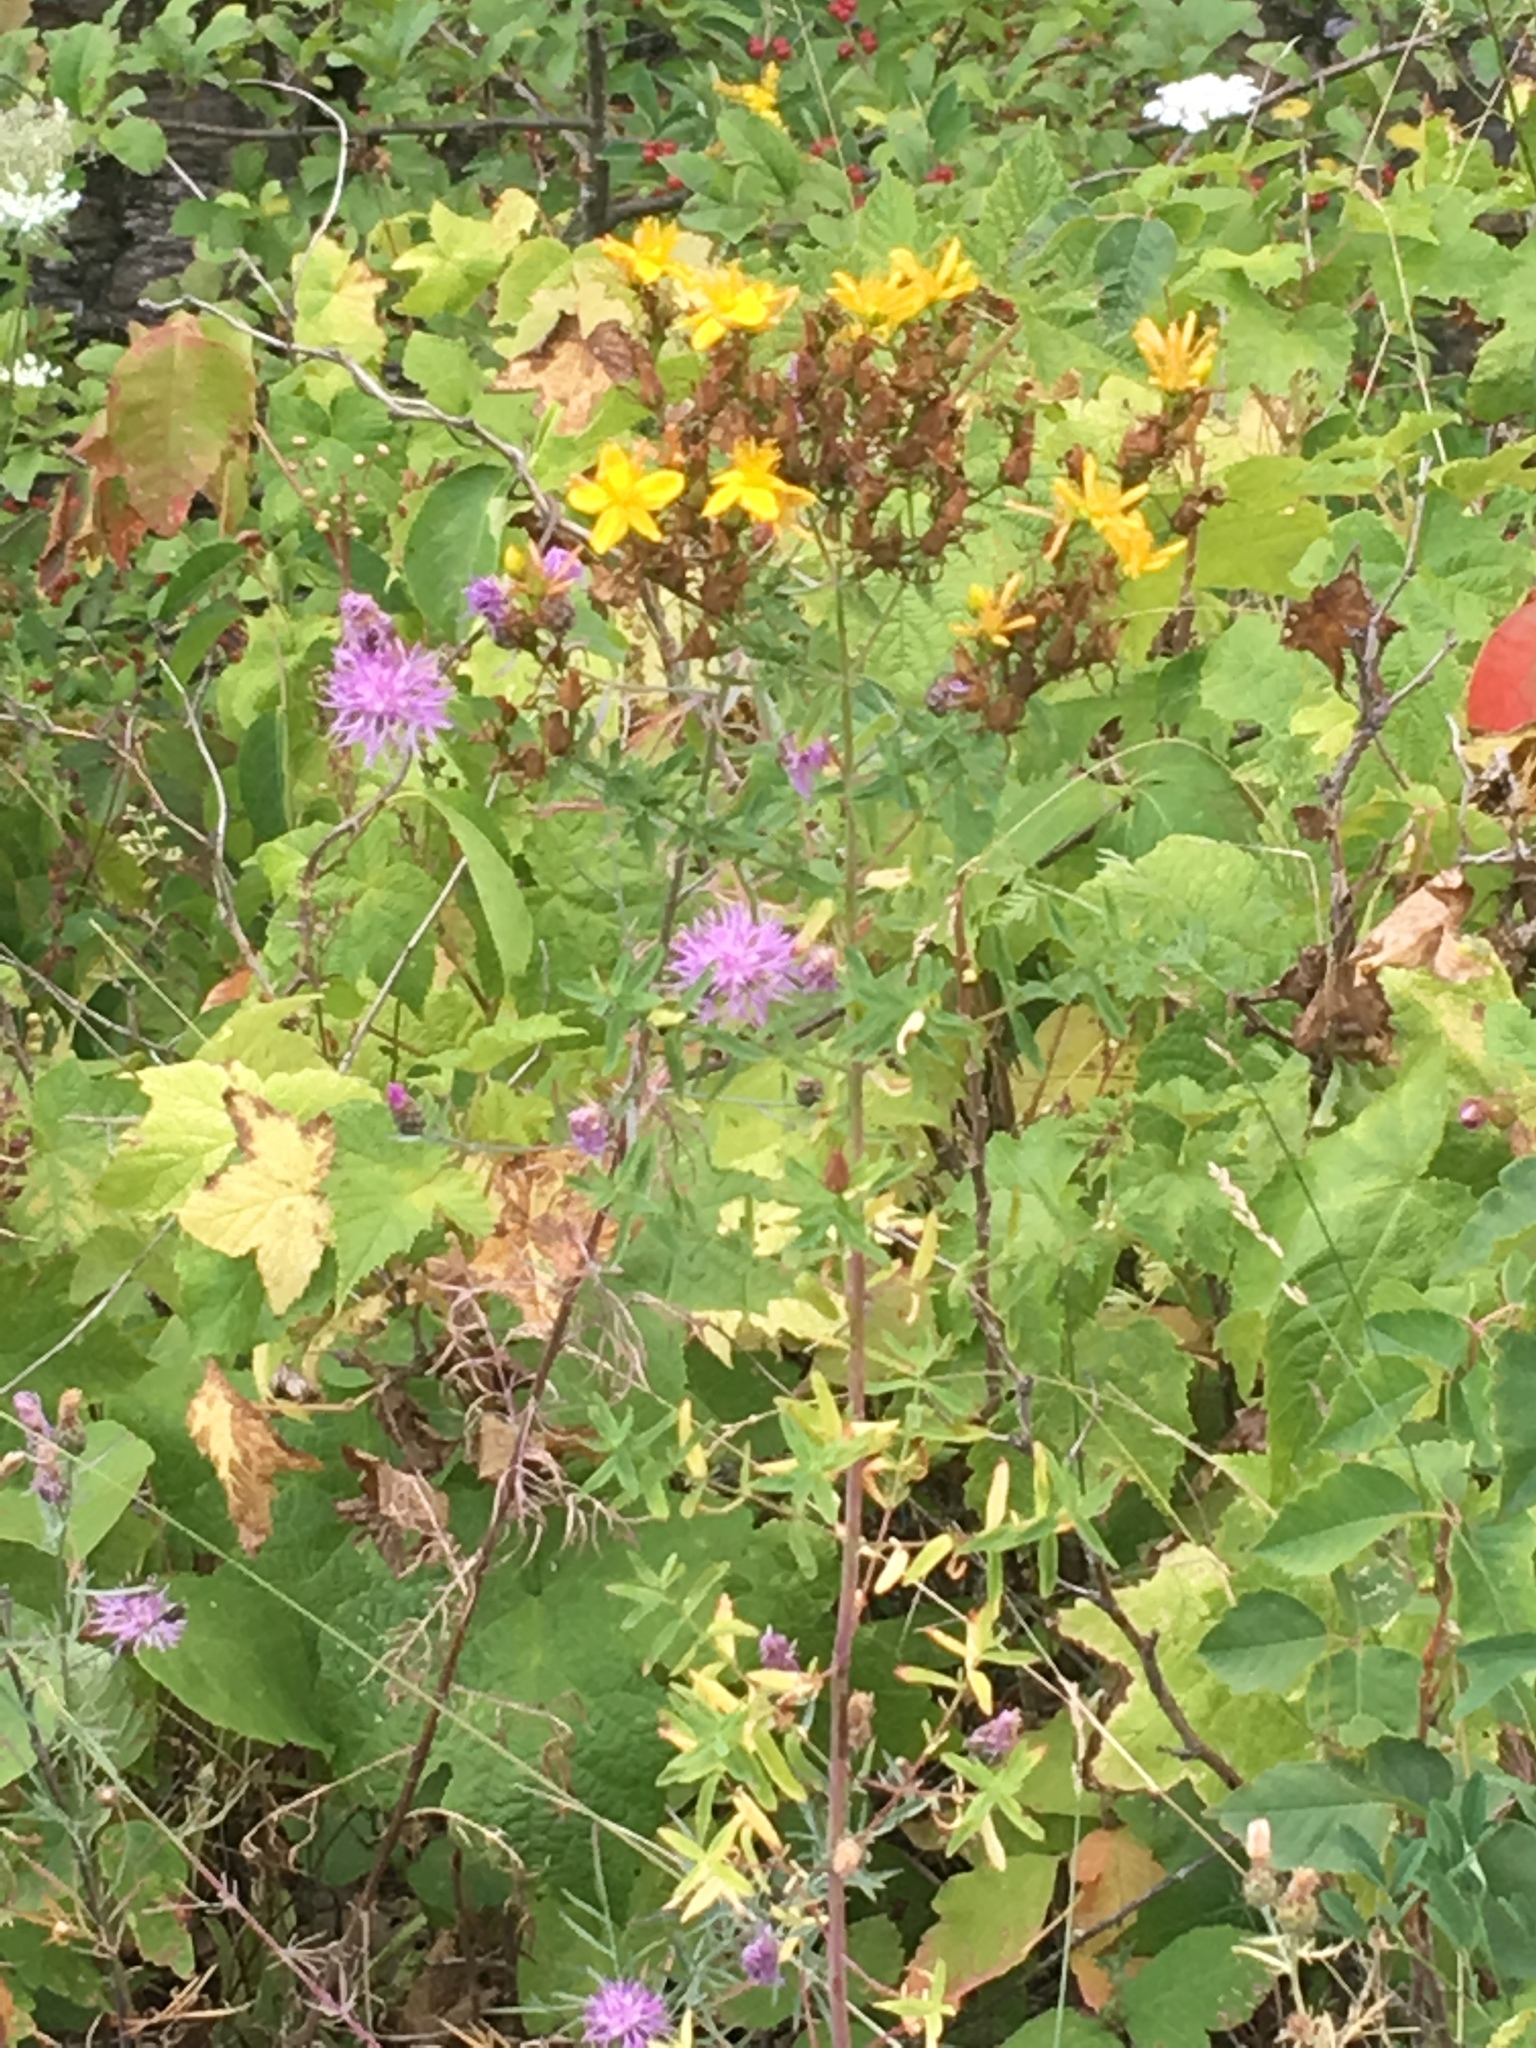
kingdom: Plantae
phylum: Tracheophyta
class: Magnoliopsida
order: Malpighiales
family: Hypericaceae
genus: Hypericum
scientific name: Hypericum perforatum
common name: Common st. johnswort
